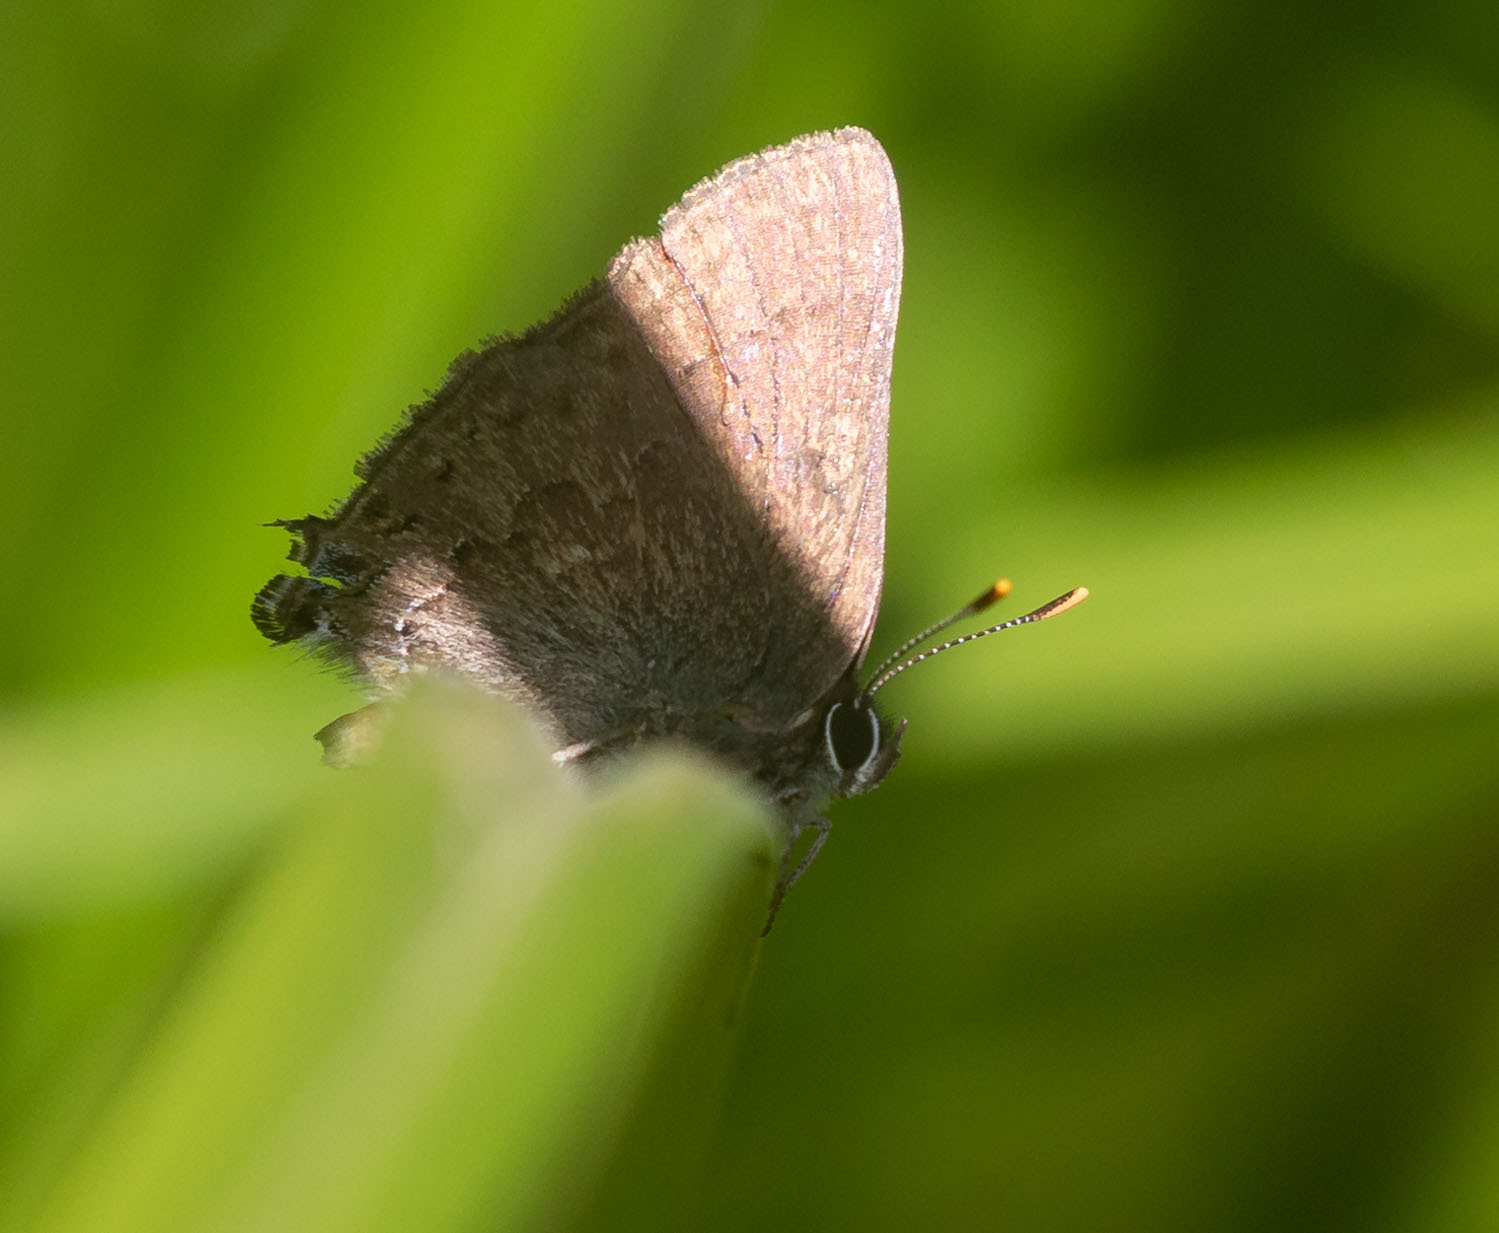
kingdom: Animalia
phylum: Arthropoda
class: Insecta
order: Lepidoptera
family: Lycaenidae
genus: Strymon
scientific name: Strymon saepium
